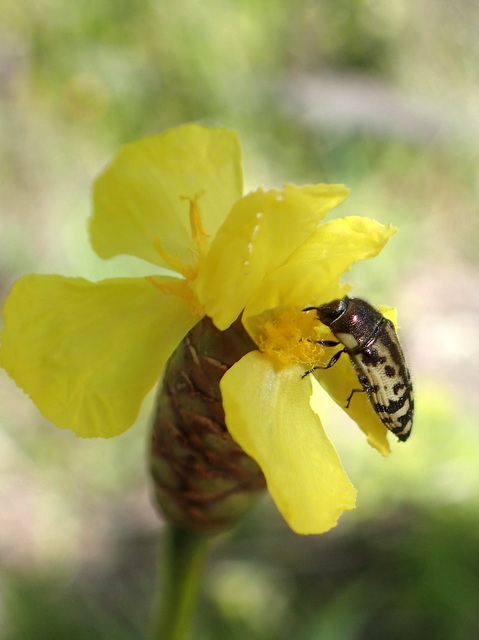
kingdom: Animalia
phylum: Arthropoda
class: Insecta
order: Coleoptera
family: Buprestidae
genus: Acmaeodera
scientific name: Acmaeodera pulchella
